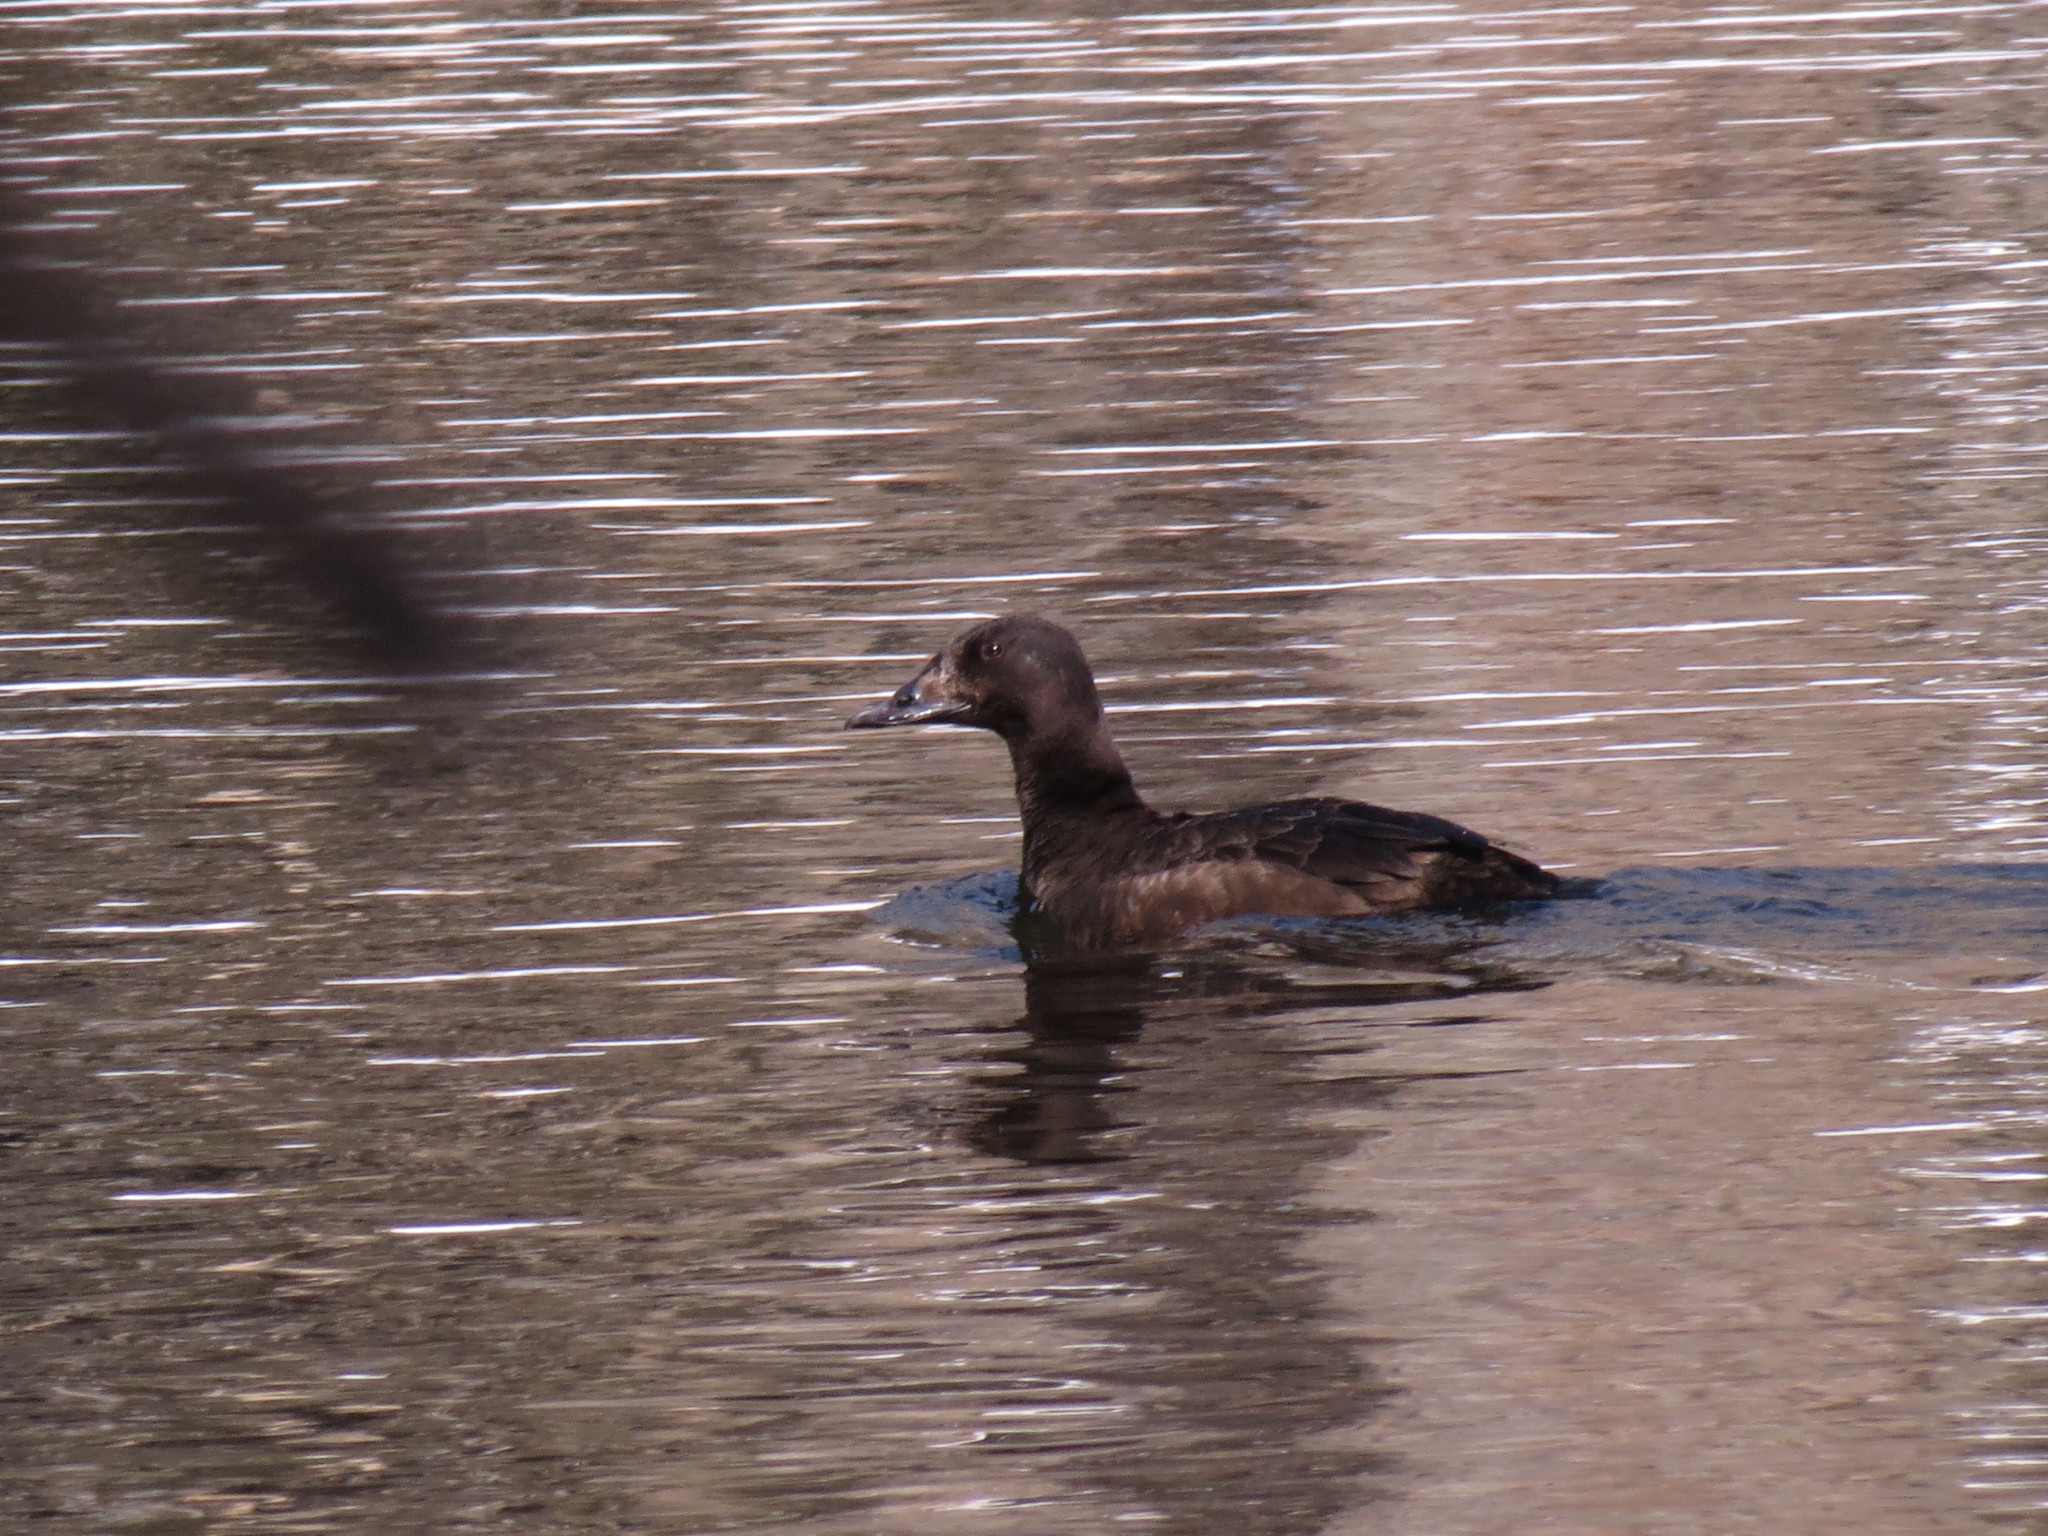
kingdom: Animalia
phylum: Chordata
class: Aves
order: Anseriformes
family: Anatidae
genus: Melanitta
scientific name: Melanitta deglandi
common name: White-winged scoter
